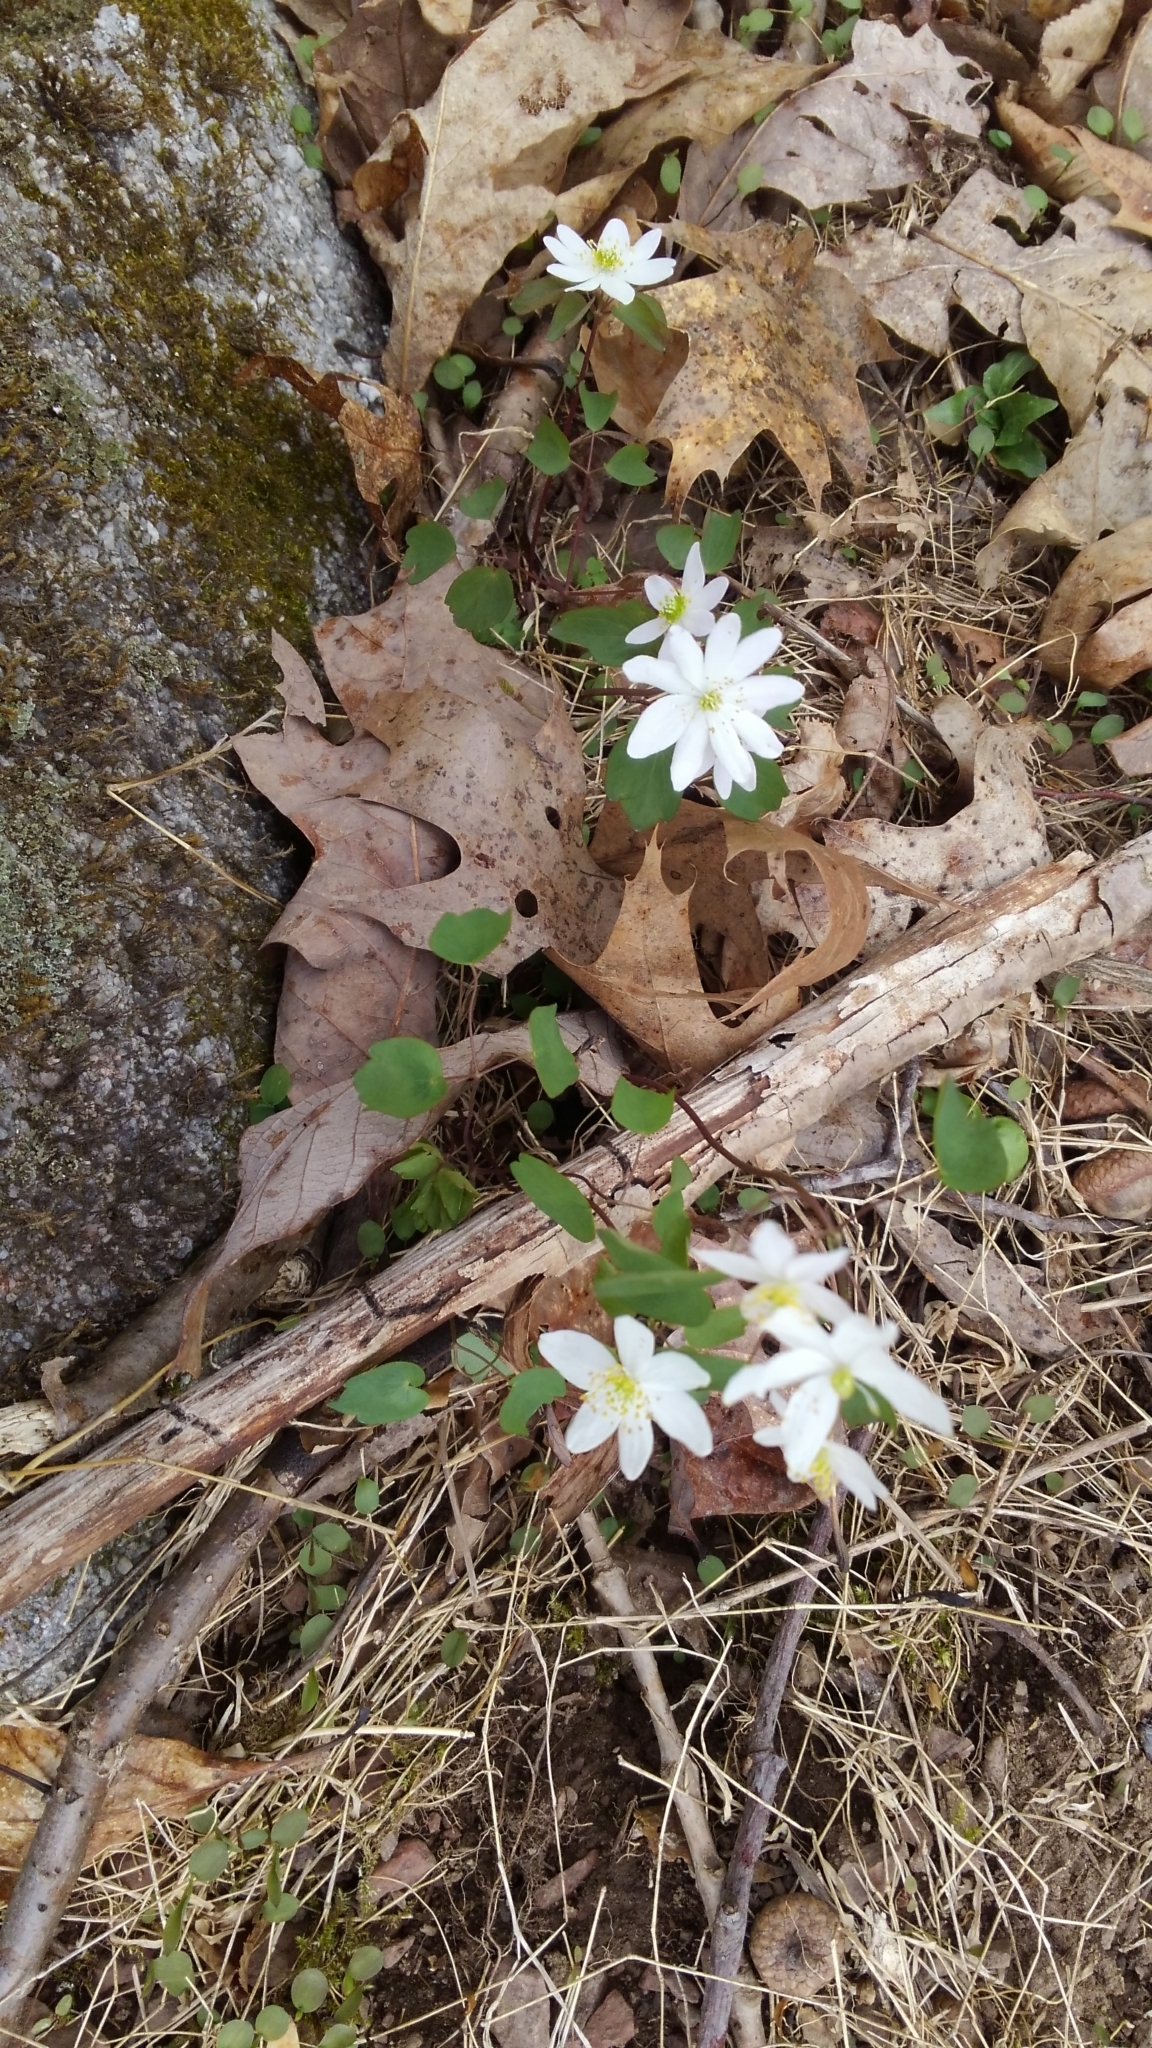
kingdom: Plantae
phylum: Tracheophyta
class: Magnoliopsida
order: Ranunculales
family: Ranunculaceae
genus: Thalictrum
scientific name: Thalictrum thalictroides
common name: Rue-anemone
